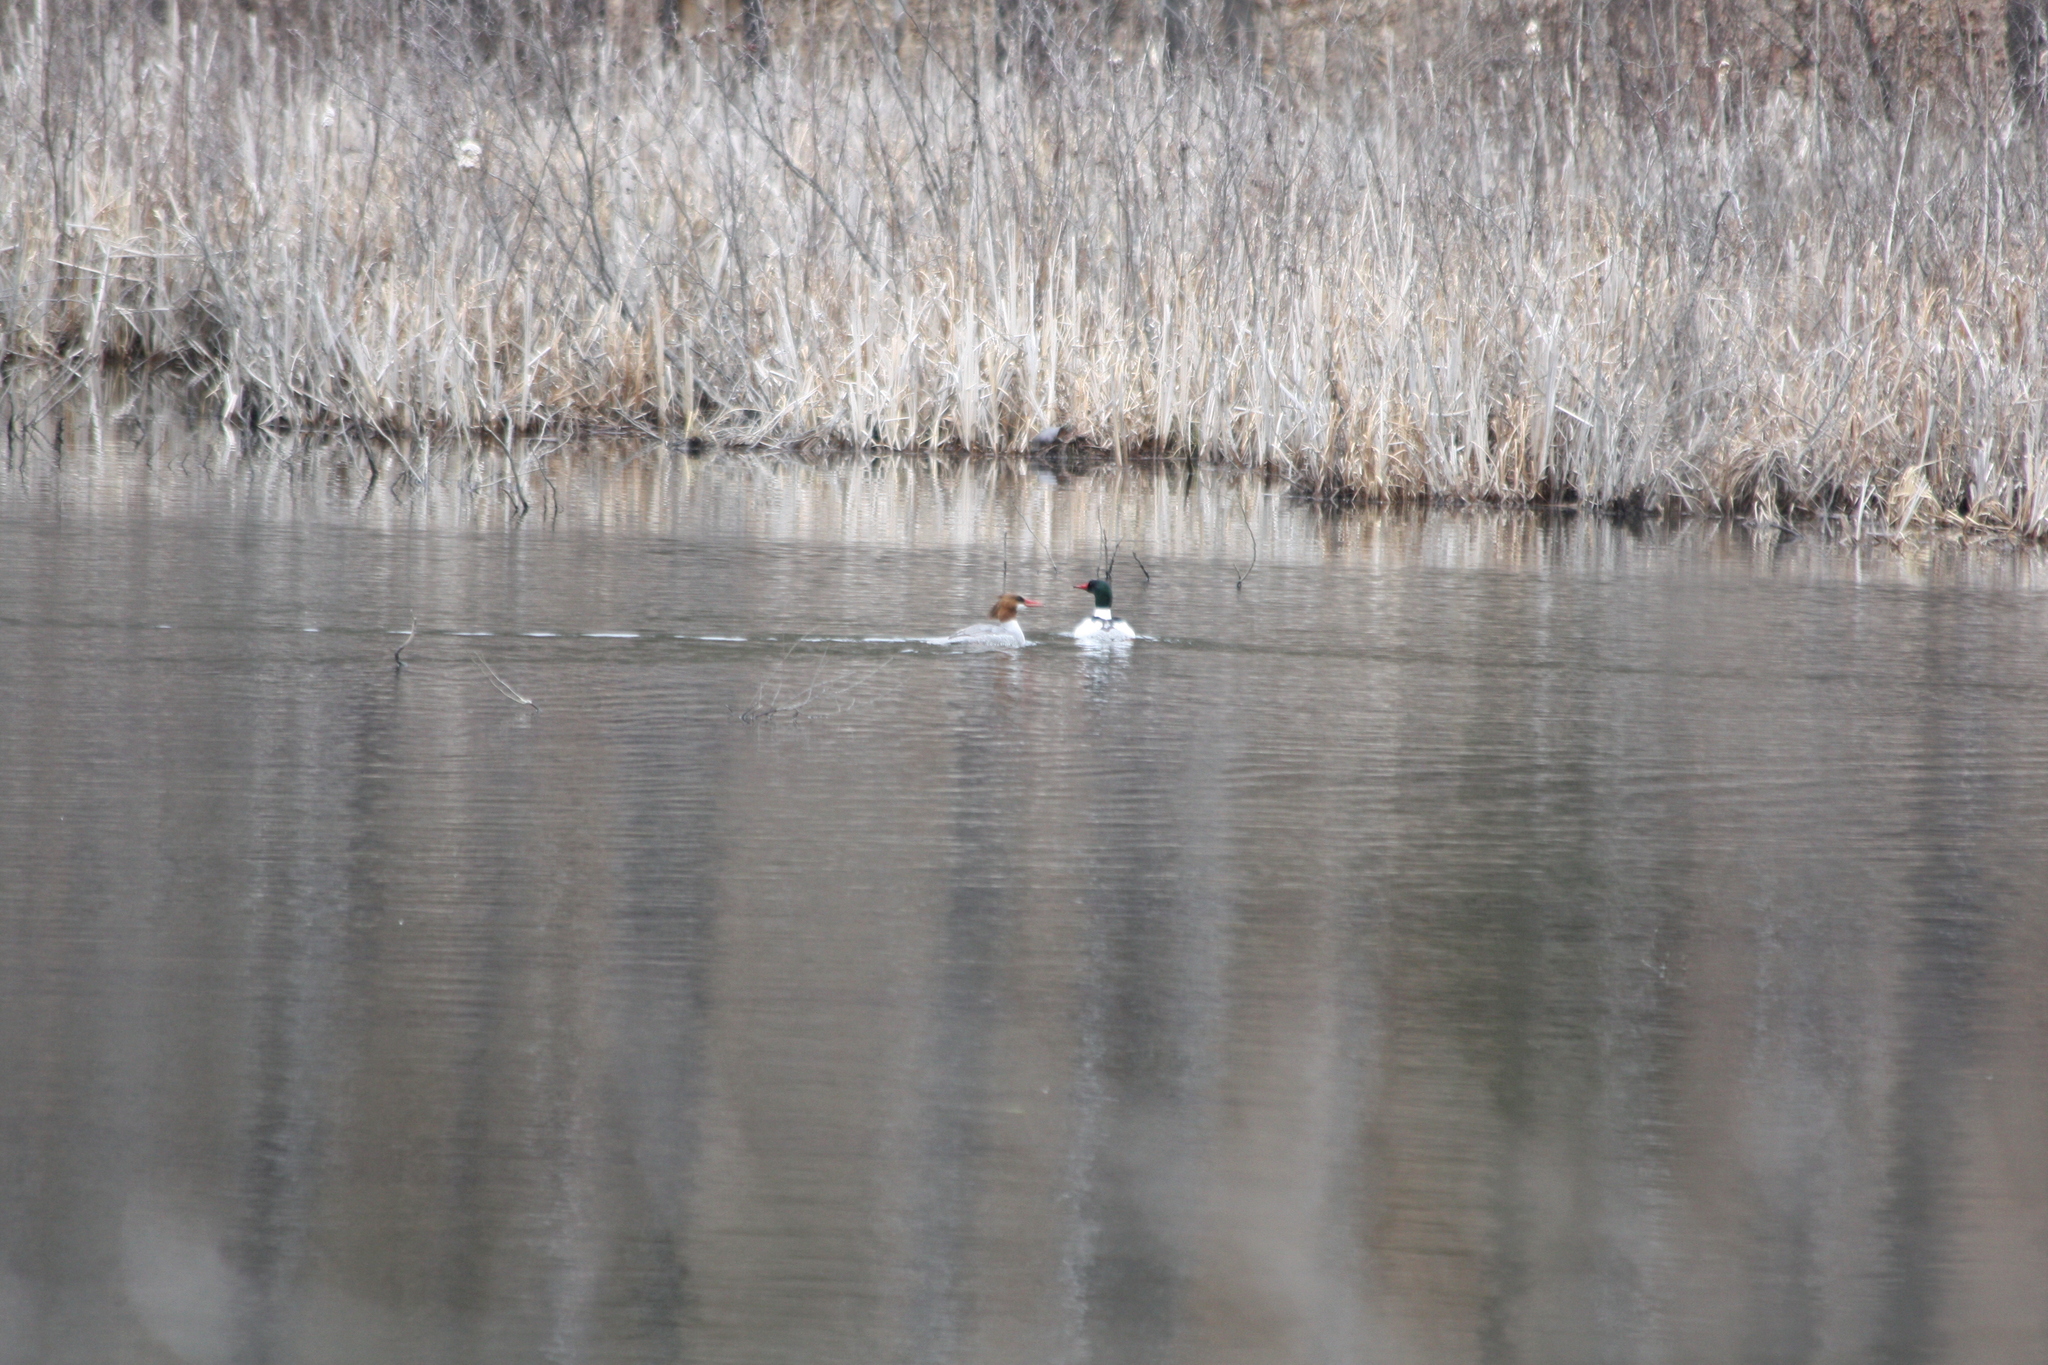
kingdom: Animalia
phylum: Chordata
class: Aves
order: Anseriformes
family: Anatidae
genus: Mergus
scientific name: Mergus merganser
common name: Common merganser
